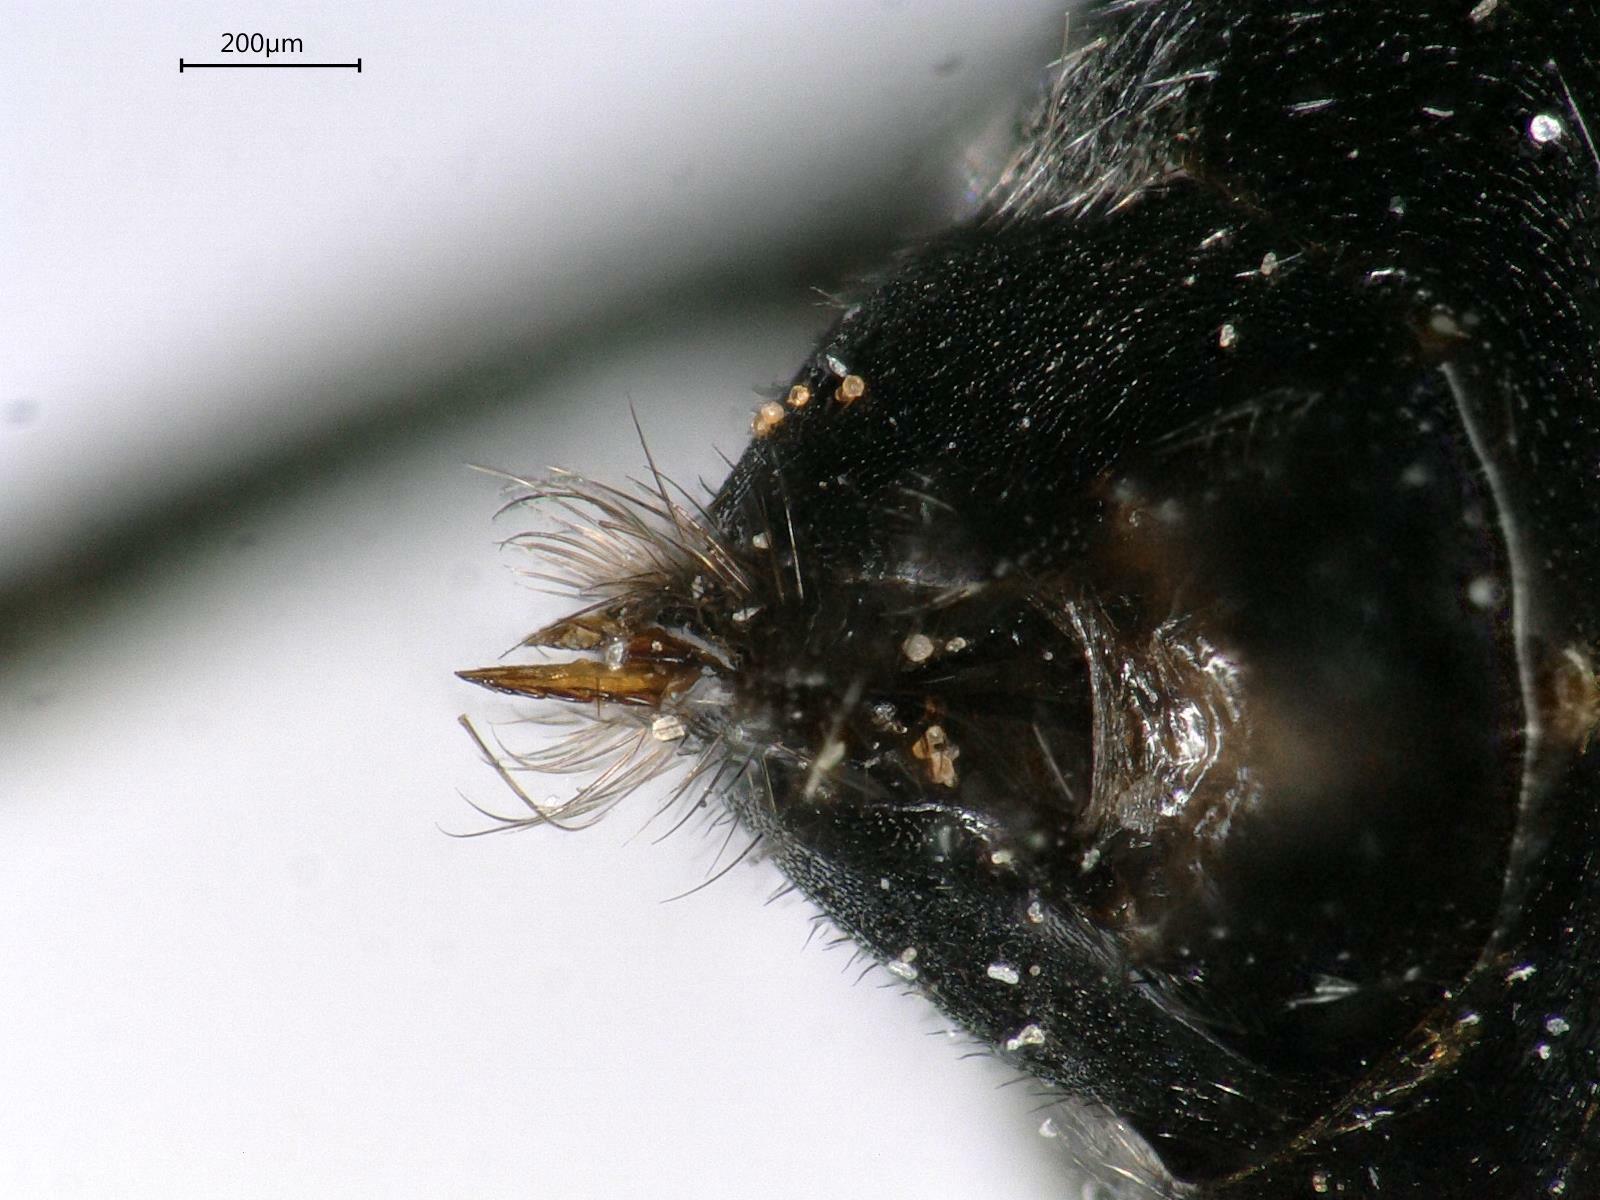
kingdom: Animalia
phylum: Arthropoda
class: Insecta
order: Hymenoptera
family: Tenthredinidae
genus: Dolerus
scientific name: Dolerus bimaculatus
